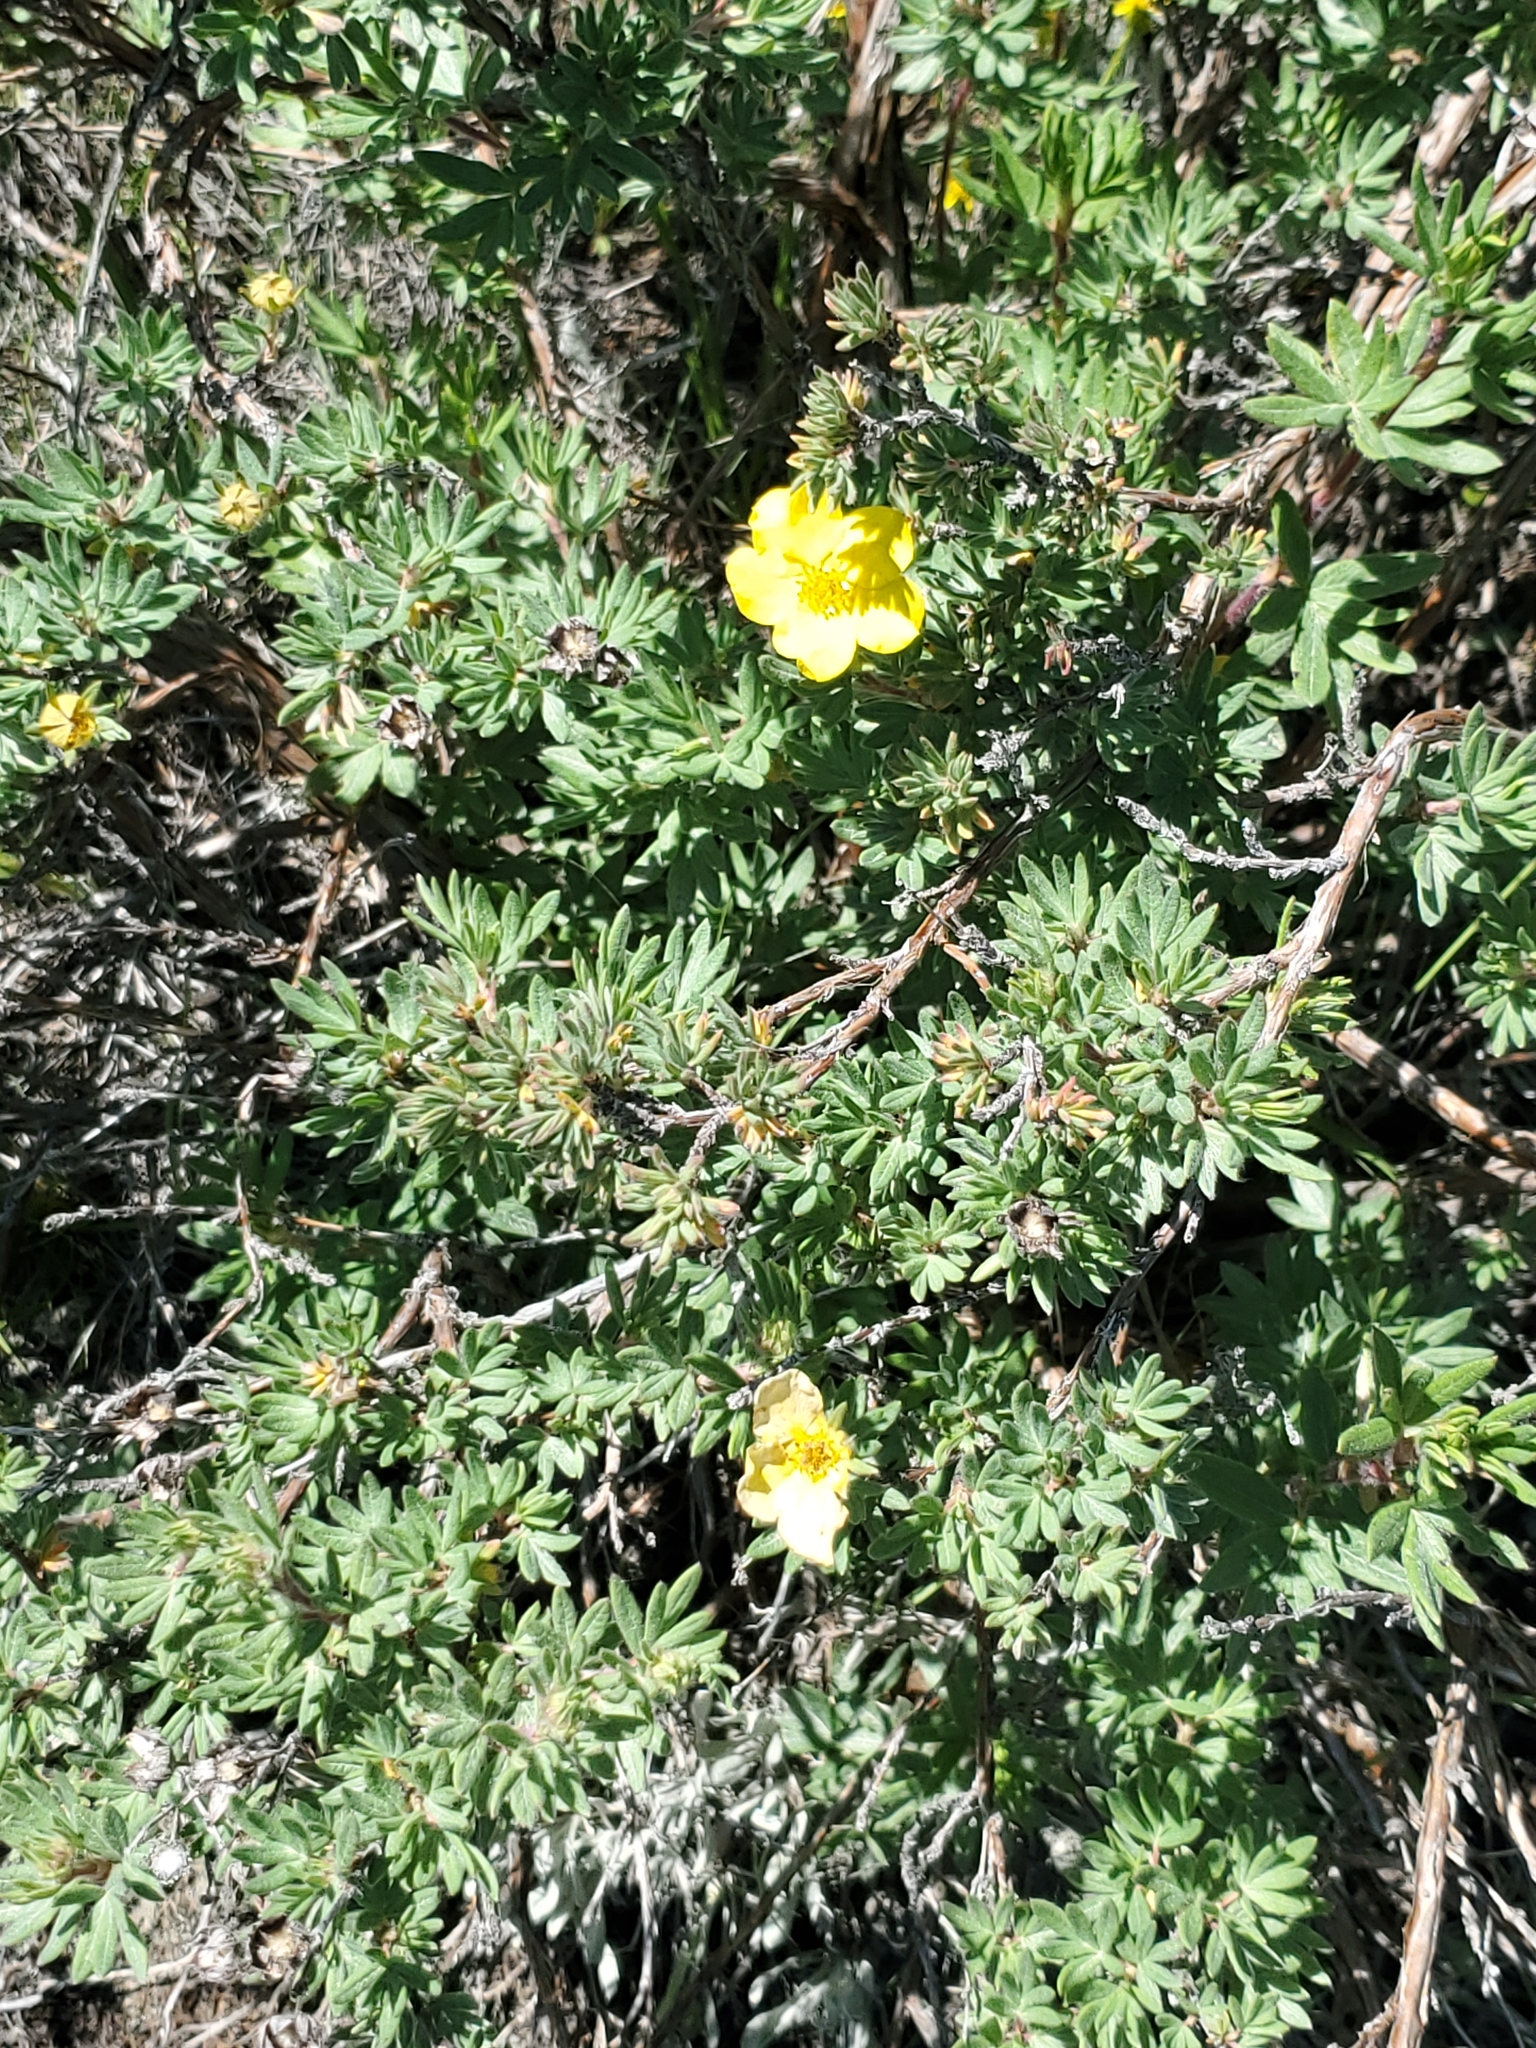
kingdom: Plantae
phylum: Tracheophyta
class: Magnoliopsida
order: Rosales
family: Rosaceae
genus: Dasiphora
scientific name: Dasiphora fruticosa
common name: Shrubby cinquefoil
